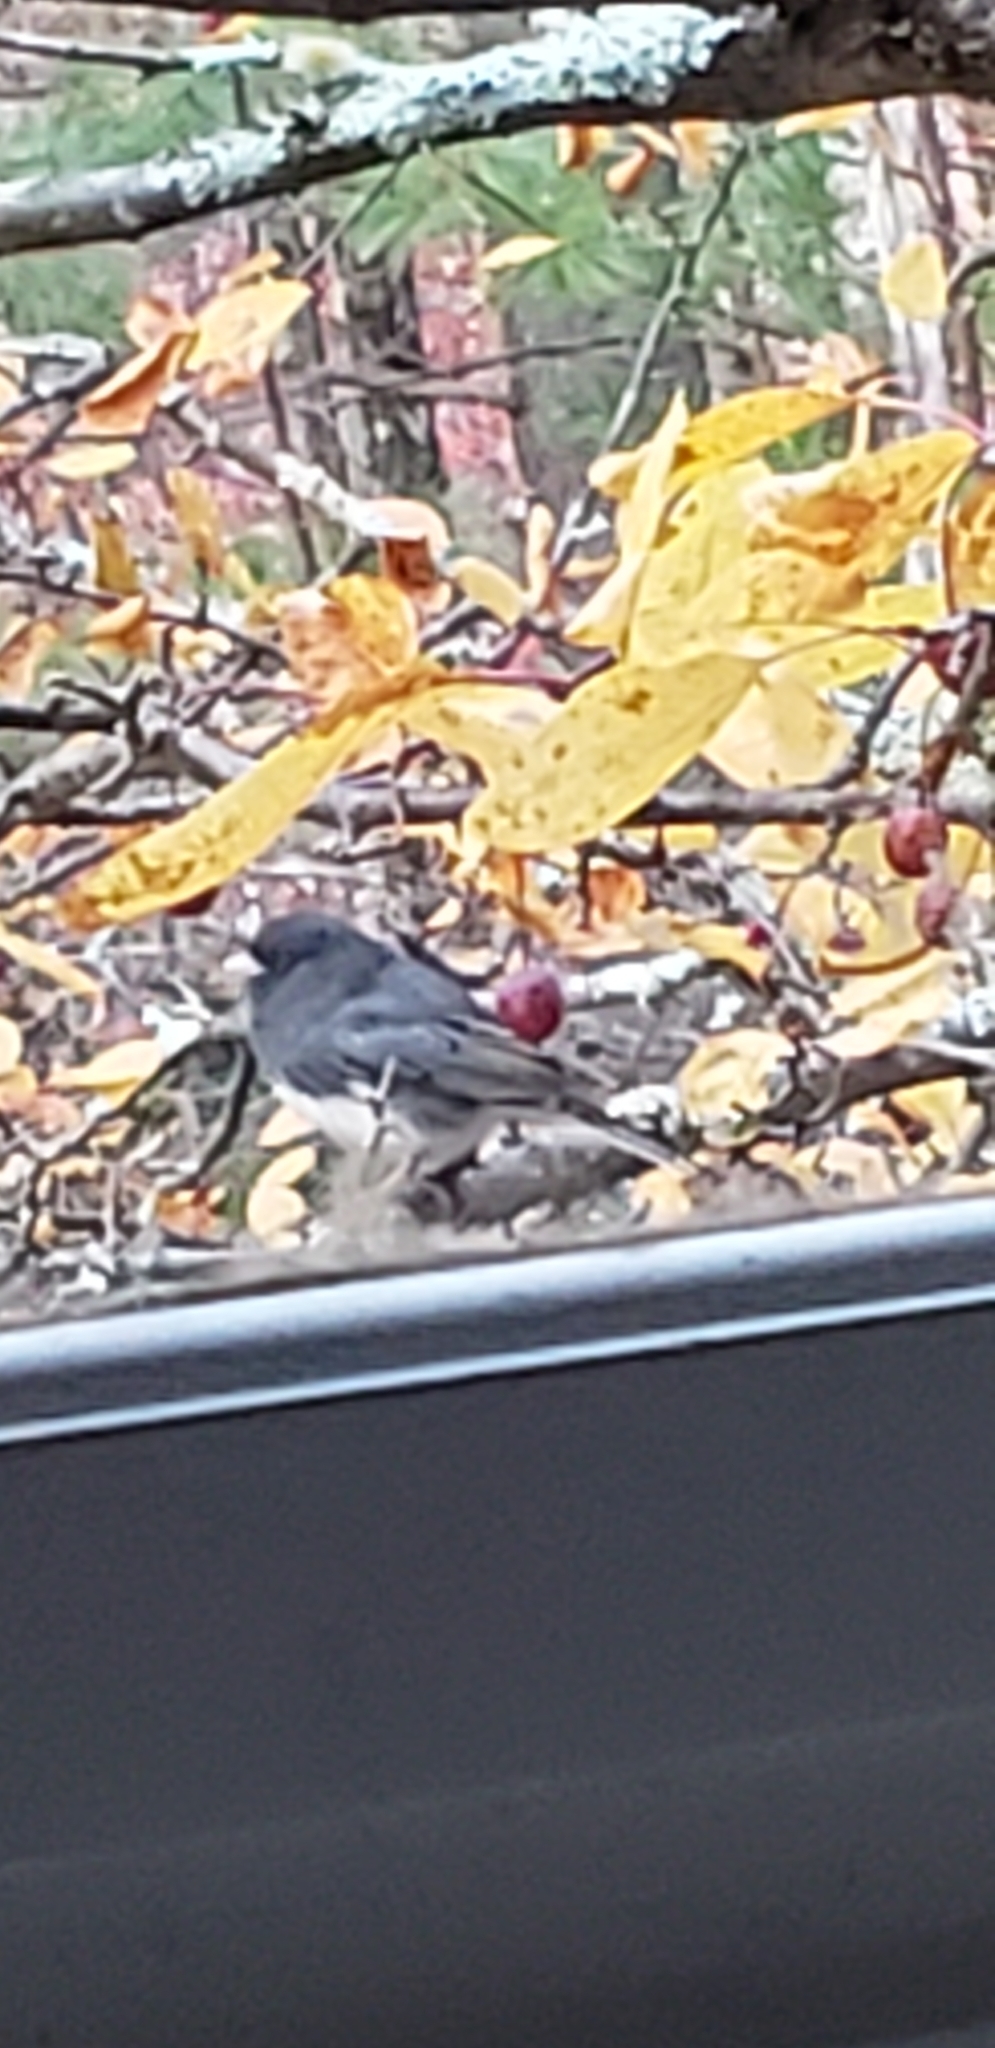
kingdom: Animalia
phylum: Chordata
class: Aves
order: Passeriformes
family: Passerellidae
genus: Junco
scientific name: Junco hyemalis
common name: Dark-eyed junco
